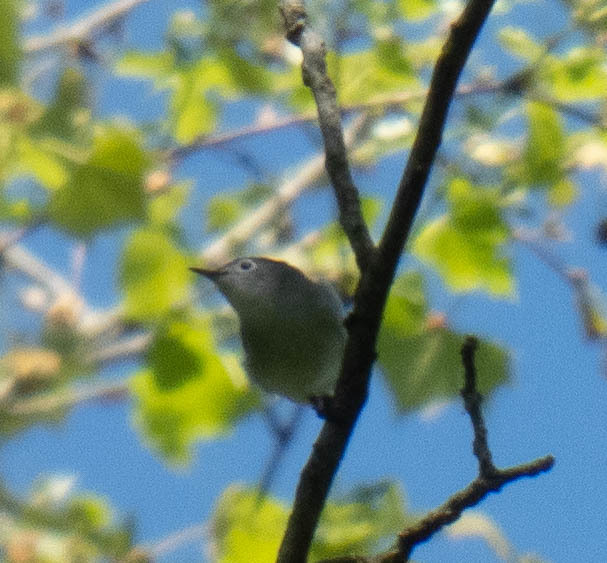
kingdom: Animalia
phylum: Chordata
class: Aves
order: Passeriformes
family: Polioptilidae
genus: Polioptila
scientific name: Polioptila caerulea
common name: Blue-gray gnatcatcher
